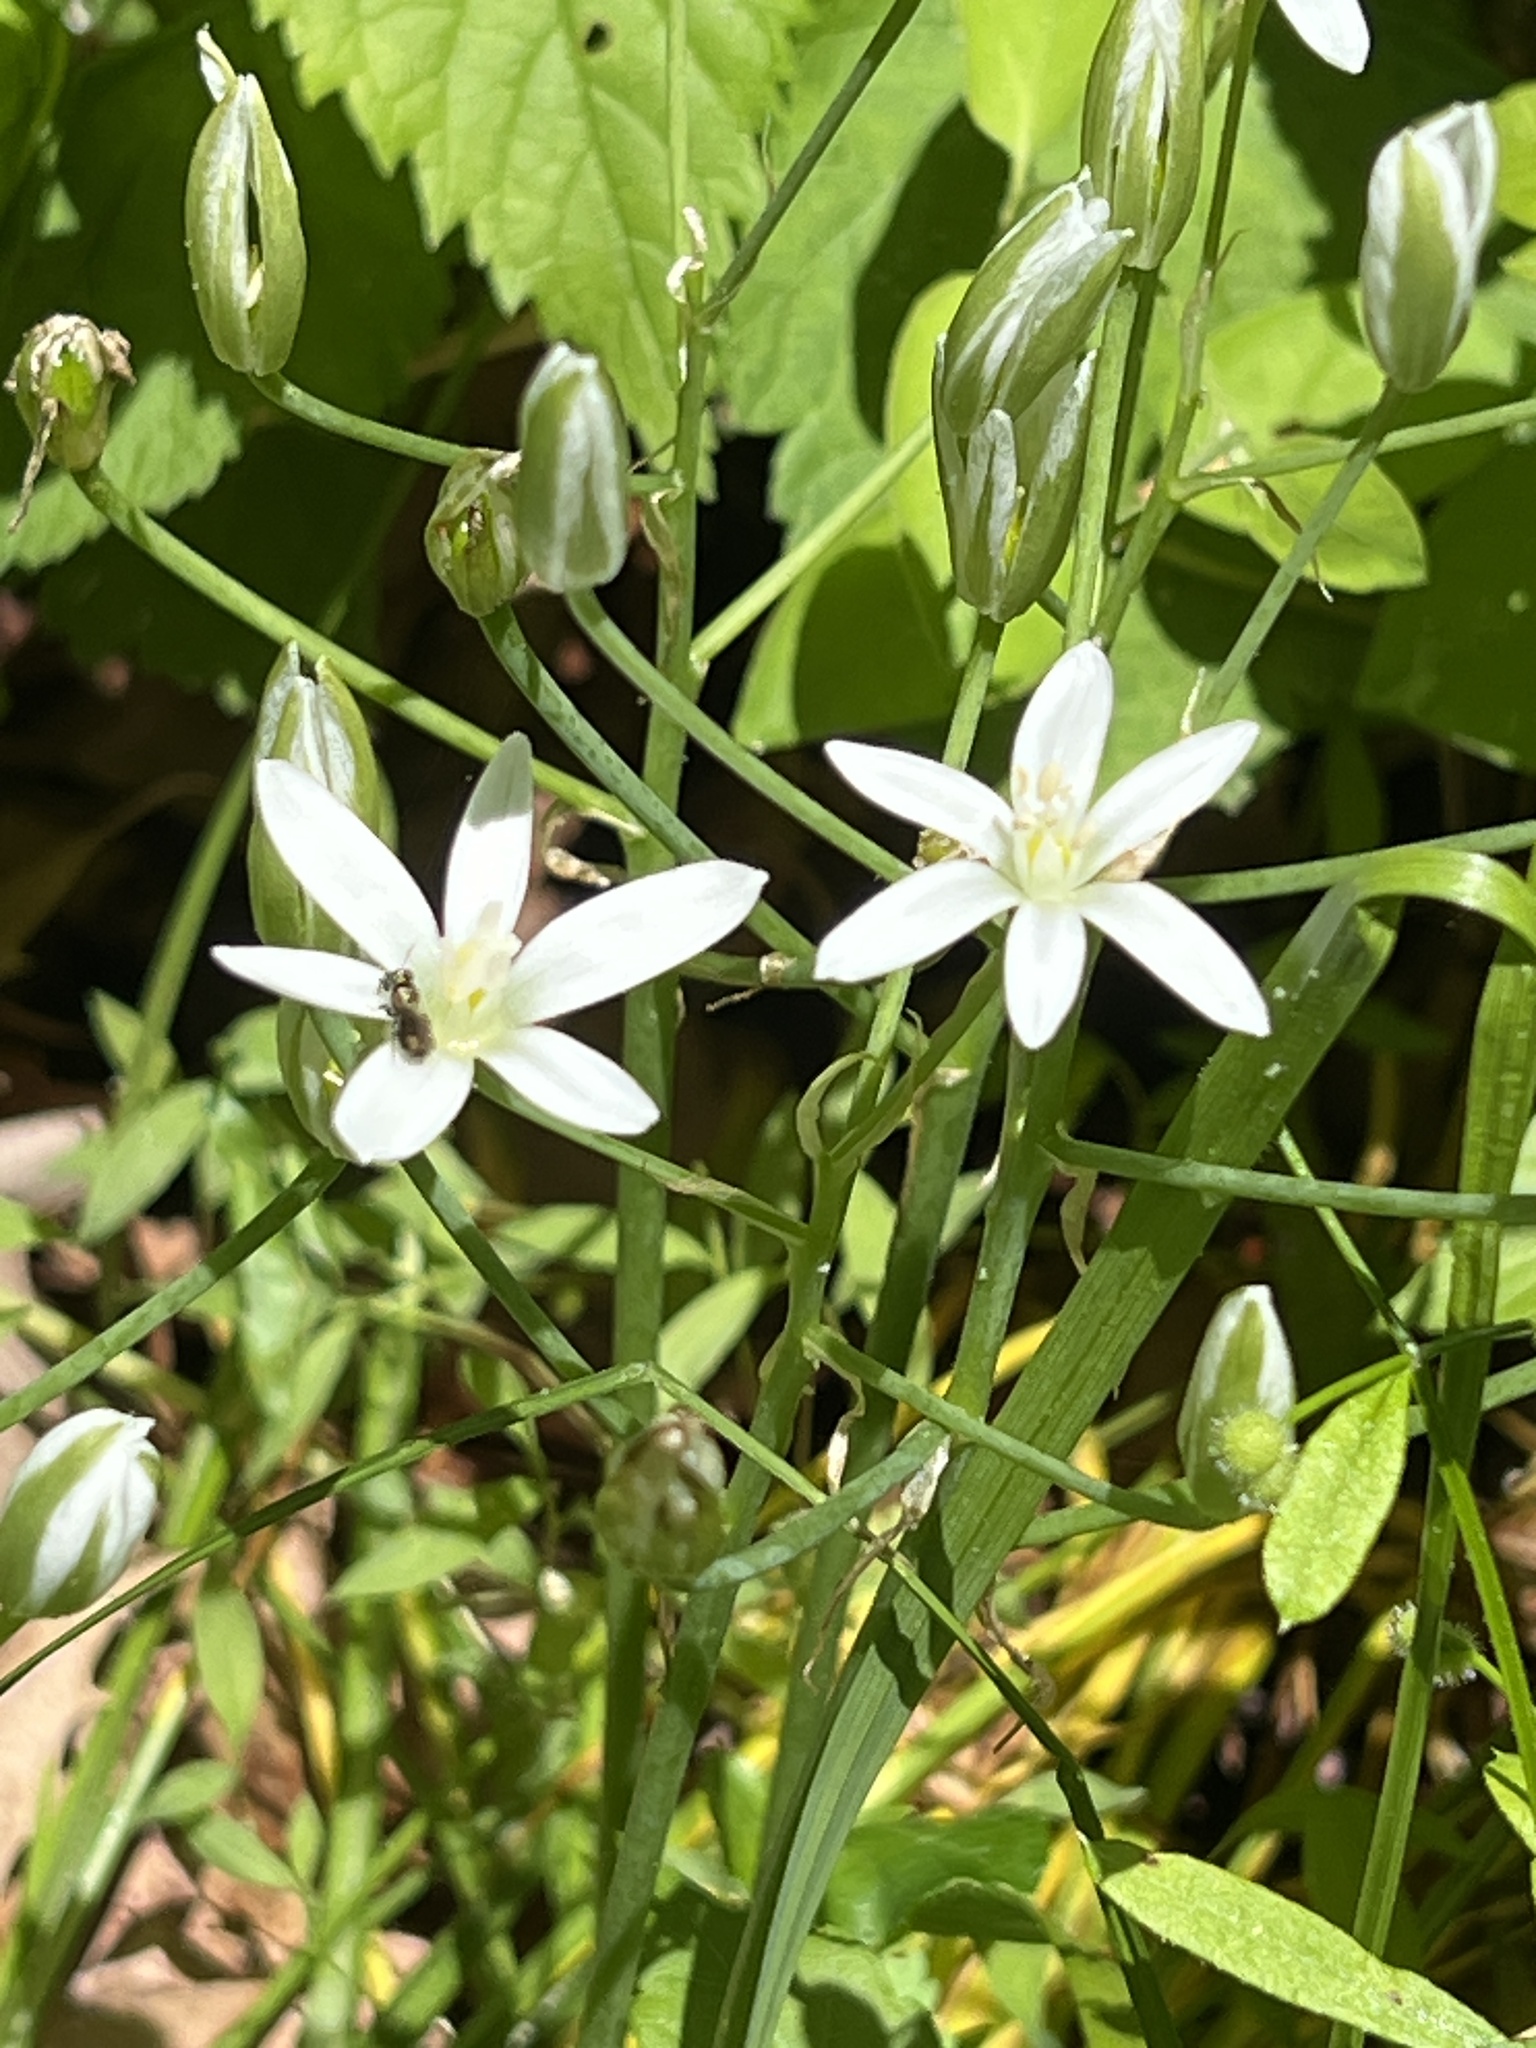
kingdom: Plantae
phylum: Tracheophyta
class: Liliopsida
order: Asparagales
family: Asparagaceae
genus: Ornithogalum
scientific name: Ornithogalum umbellatum
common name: Garden star-of-bethlehem
